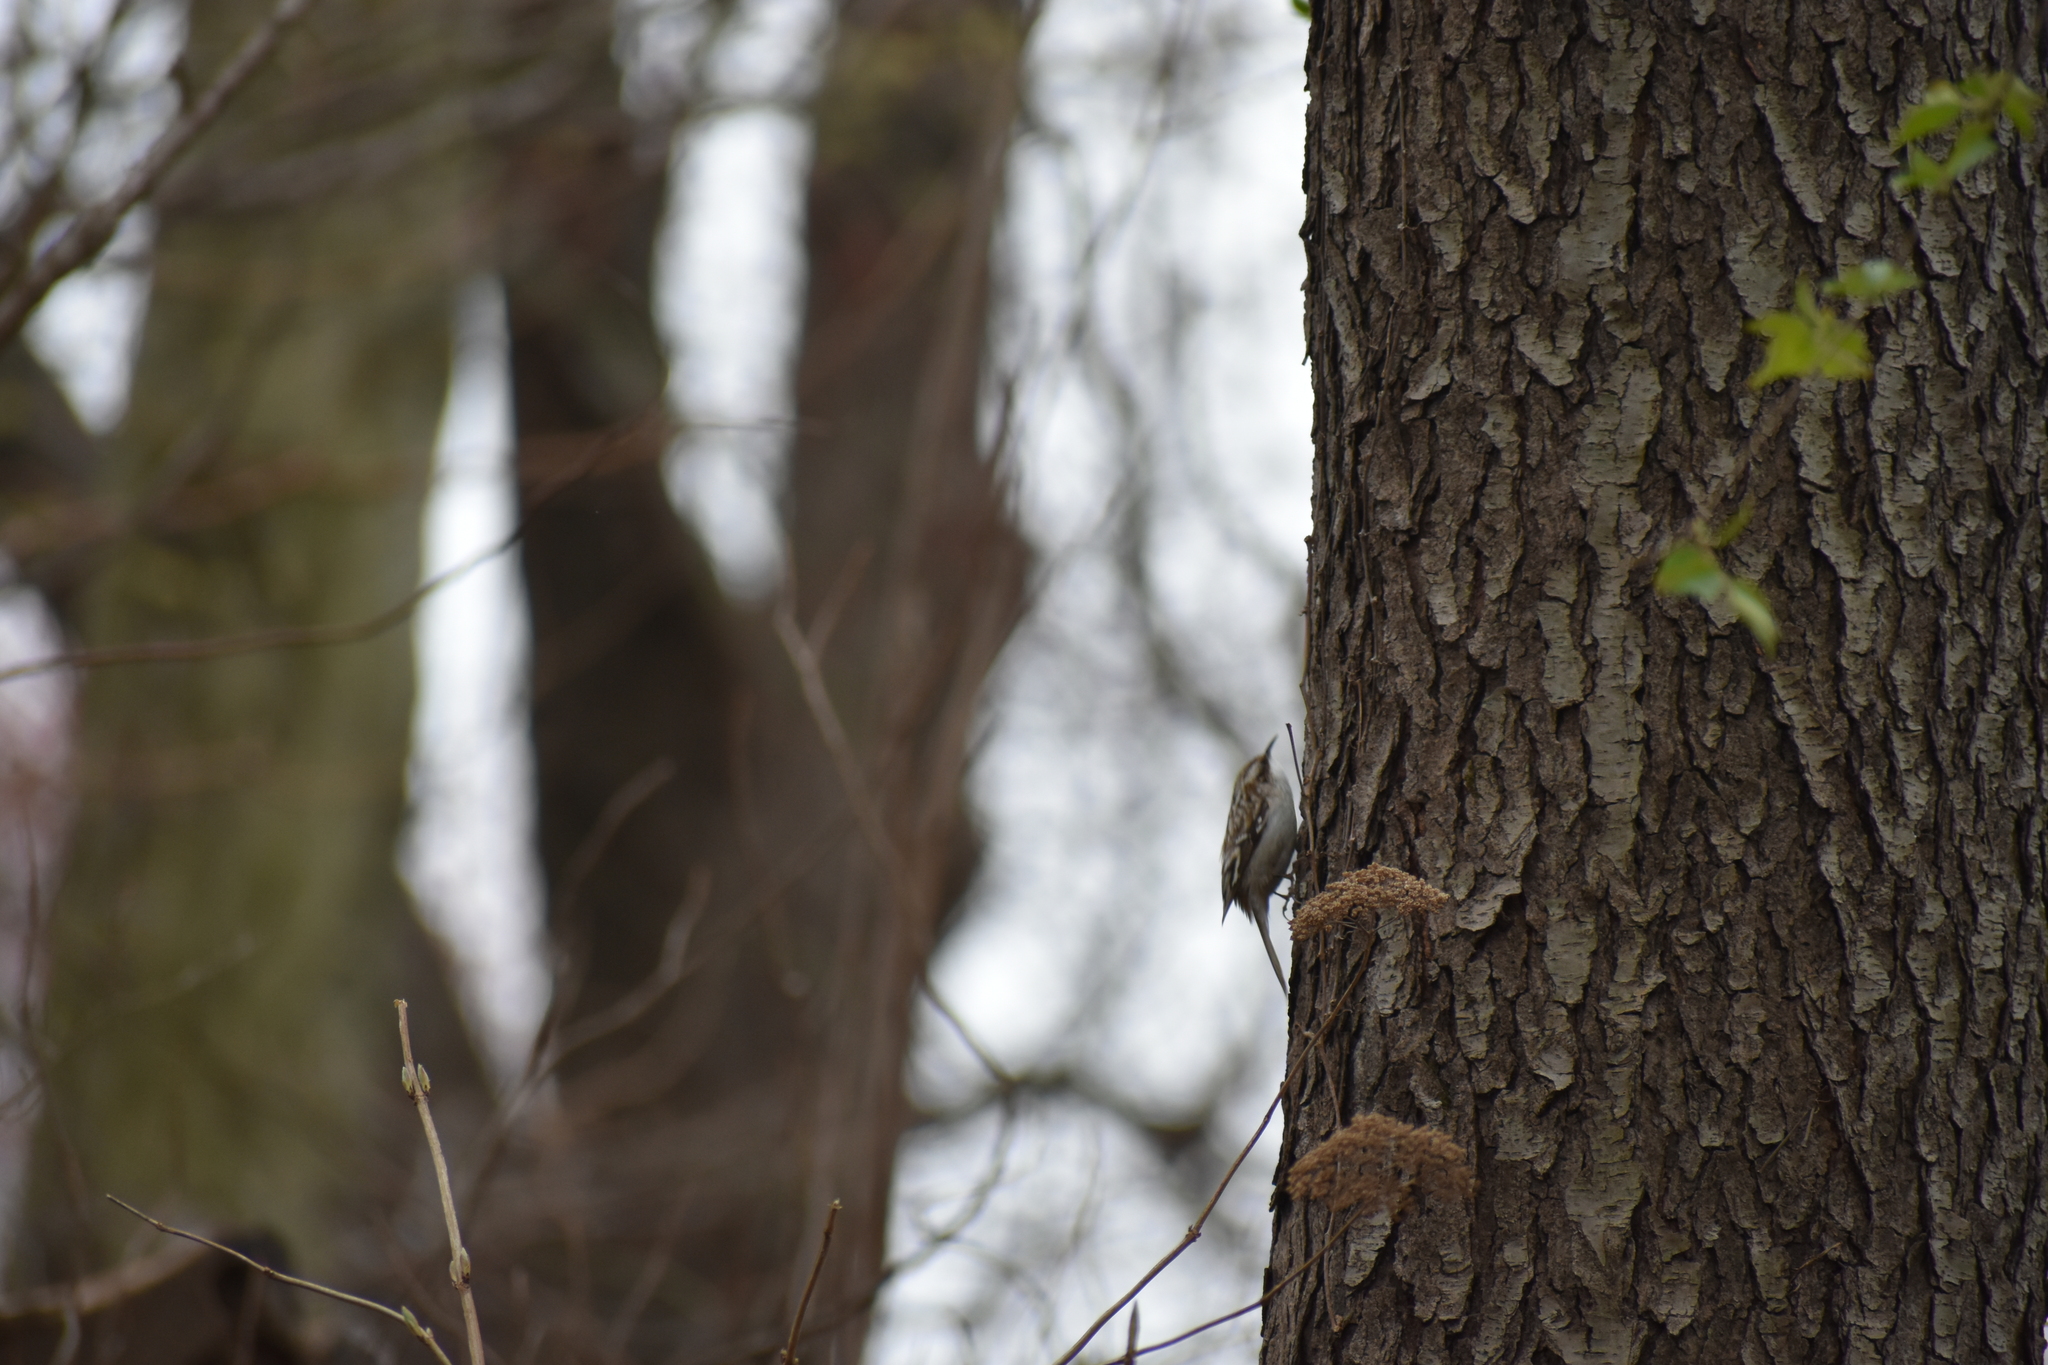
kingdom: Animalia
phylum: Chordata
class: Aves
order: Passeriformes
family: Certhiidae
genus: Certhia
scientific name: Certhia americana
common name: Brown creeper
